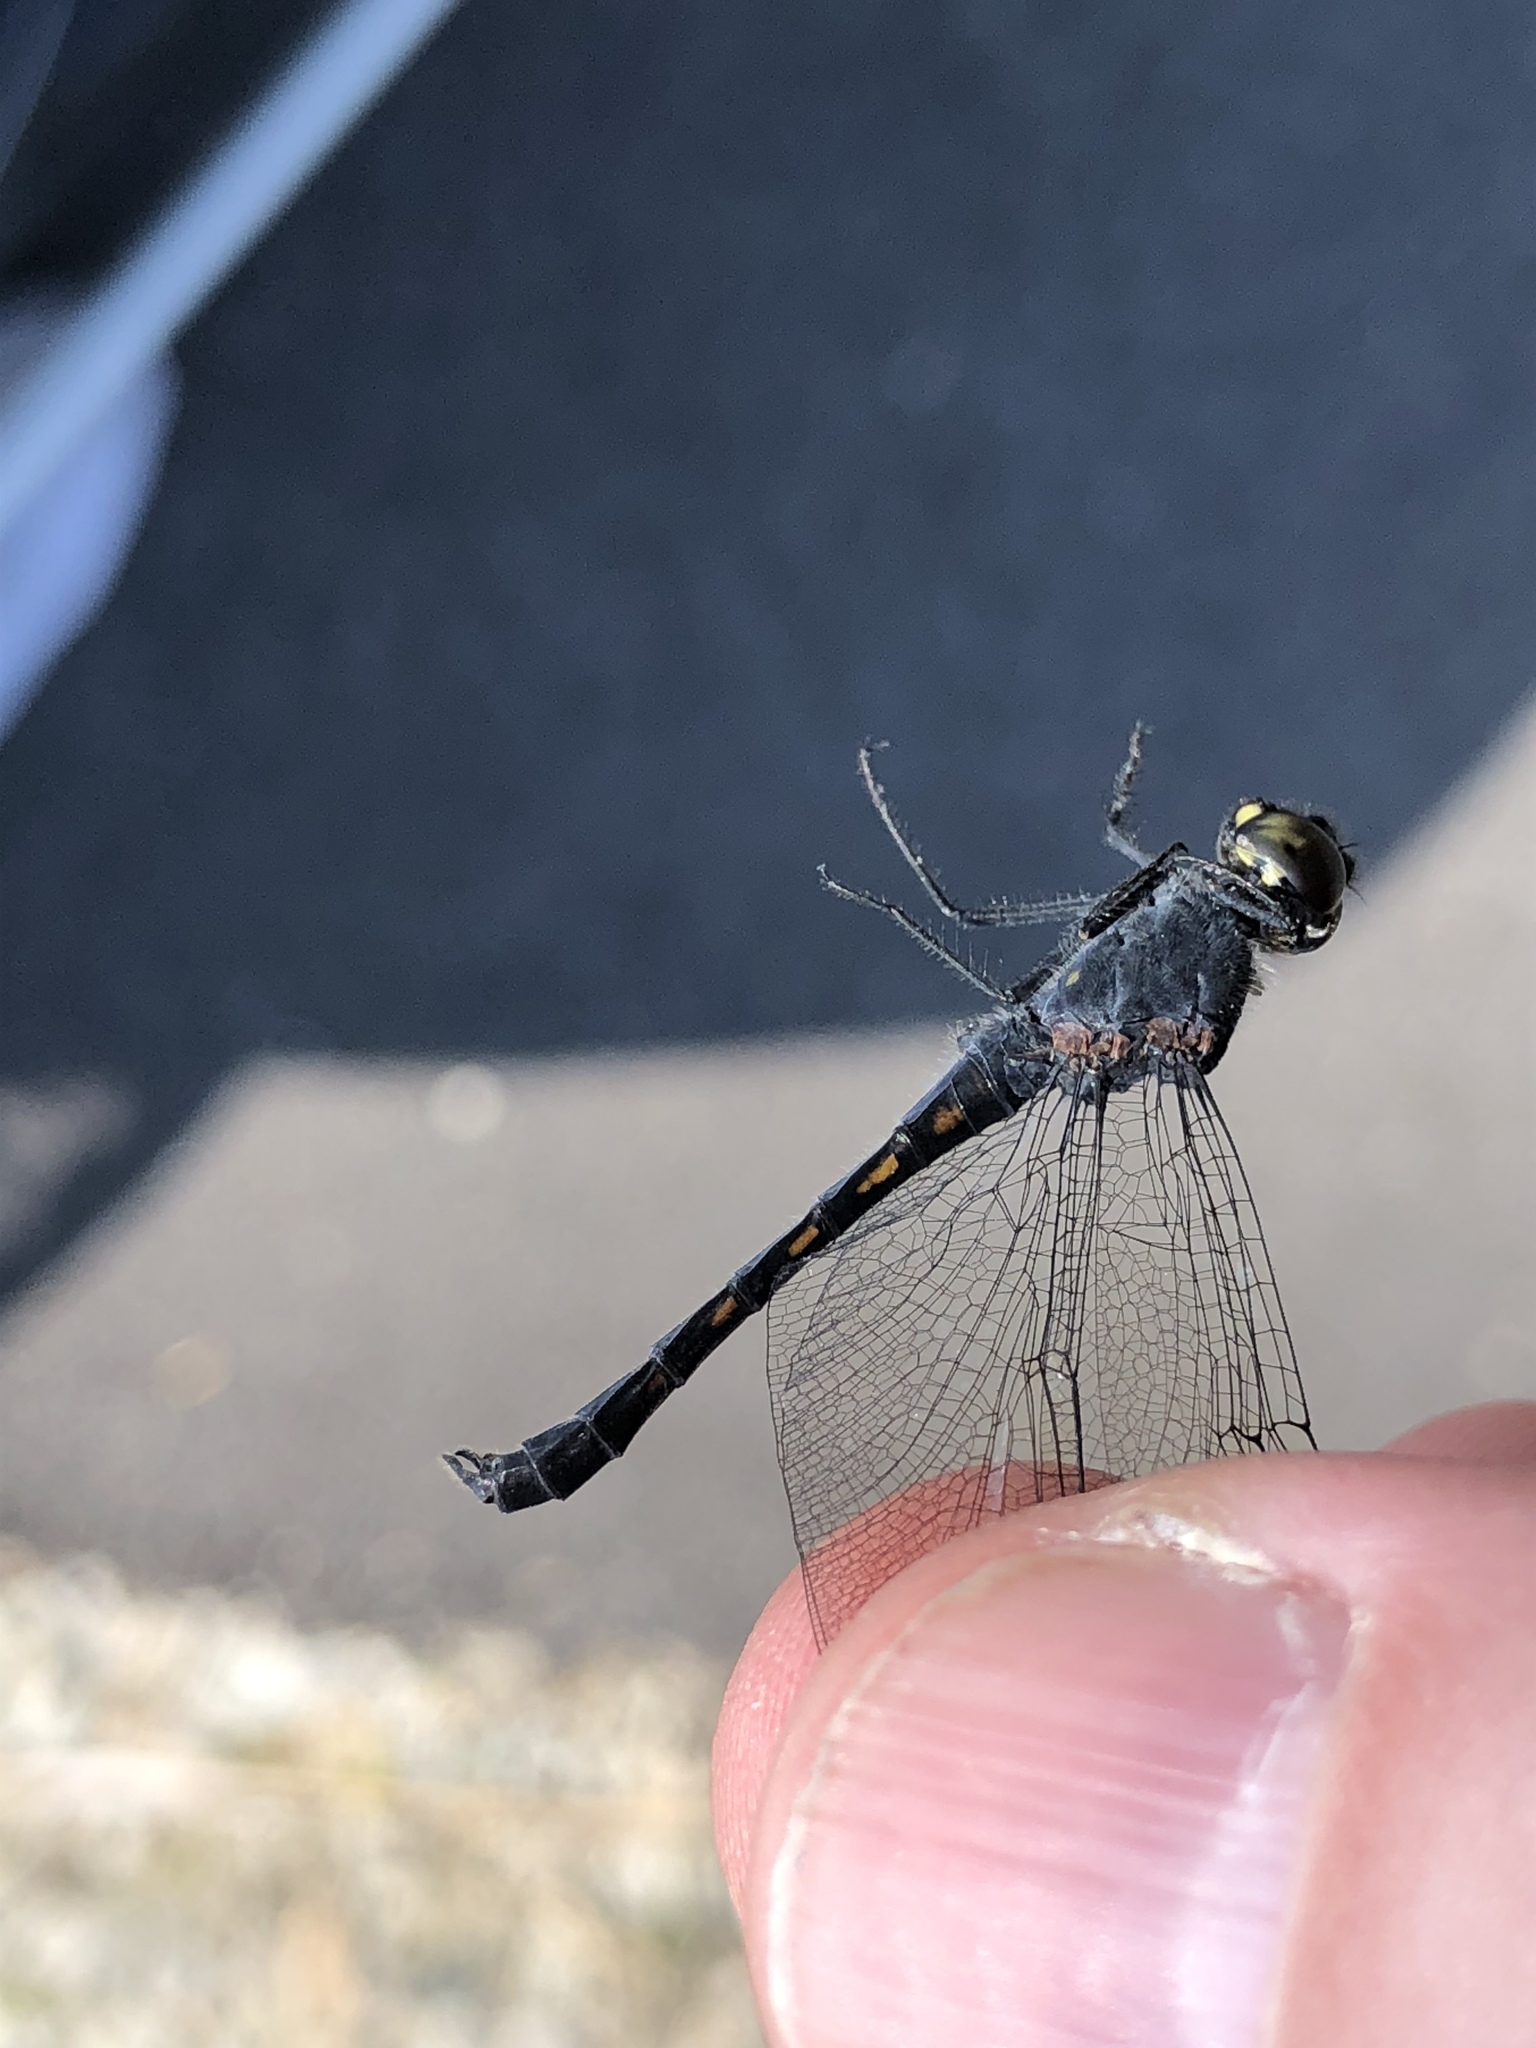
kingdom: Animalia
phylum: Arthropoda
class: Insecta
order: Odonata
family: Libellulidae
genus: Erythrodiplax
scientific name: Erythrodiplax berenice
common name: Seaside dragonlet
